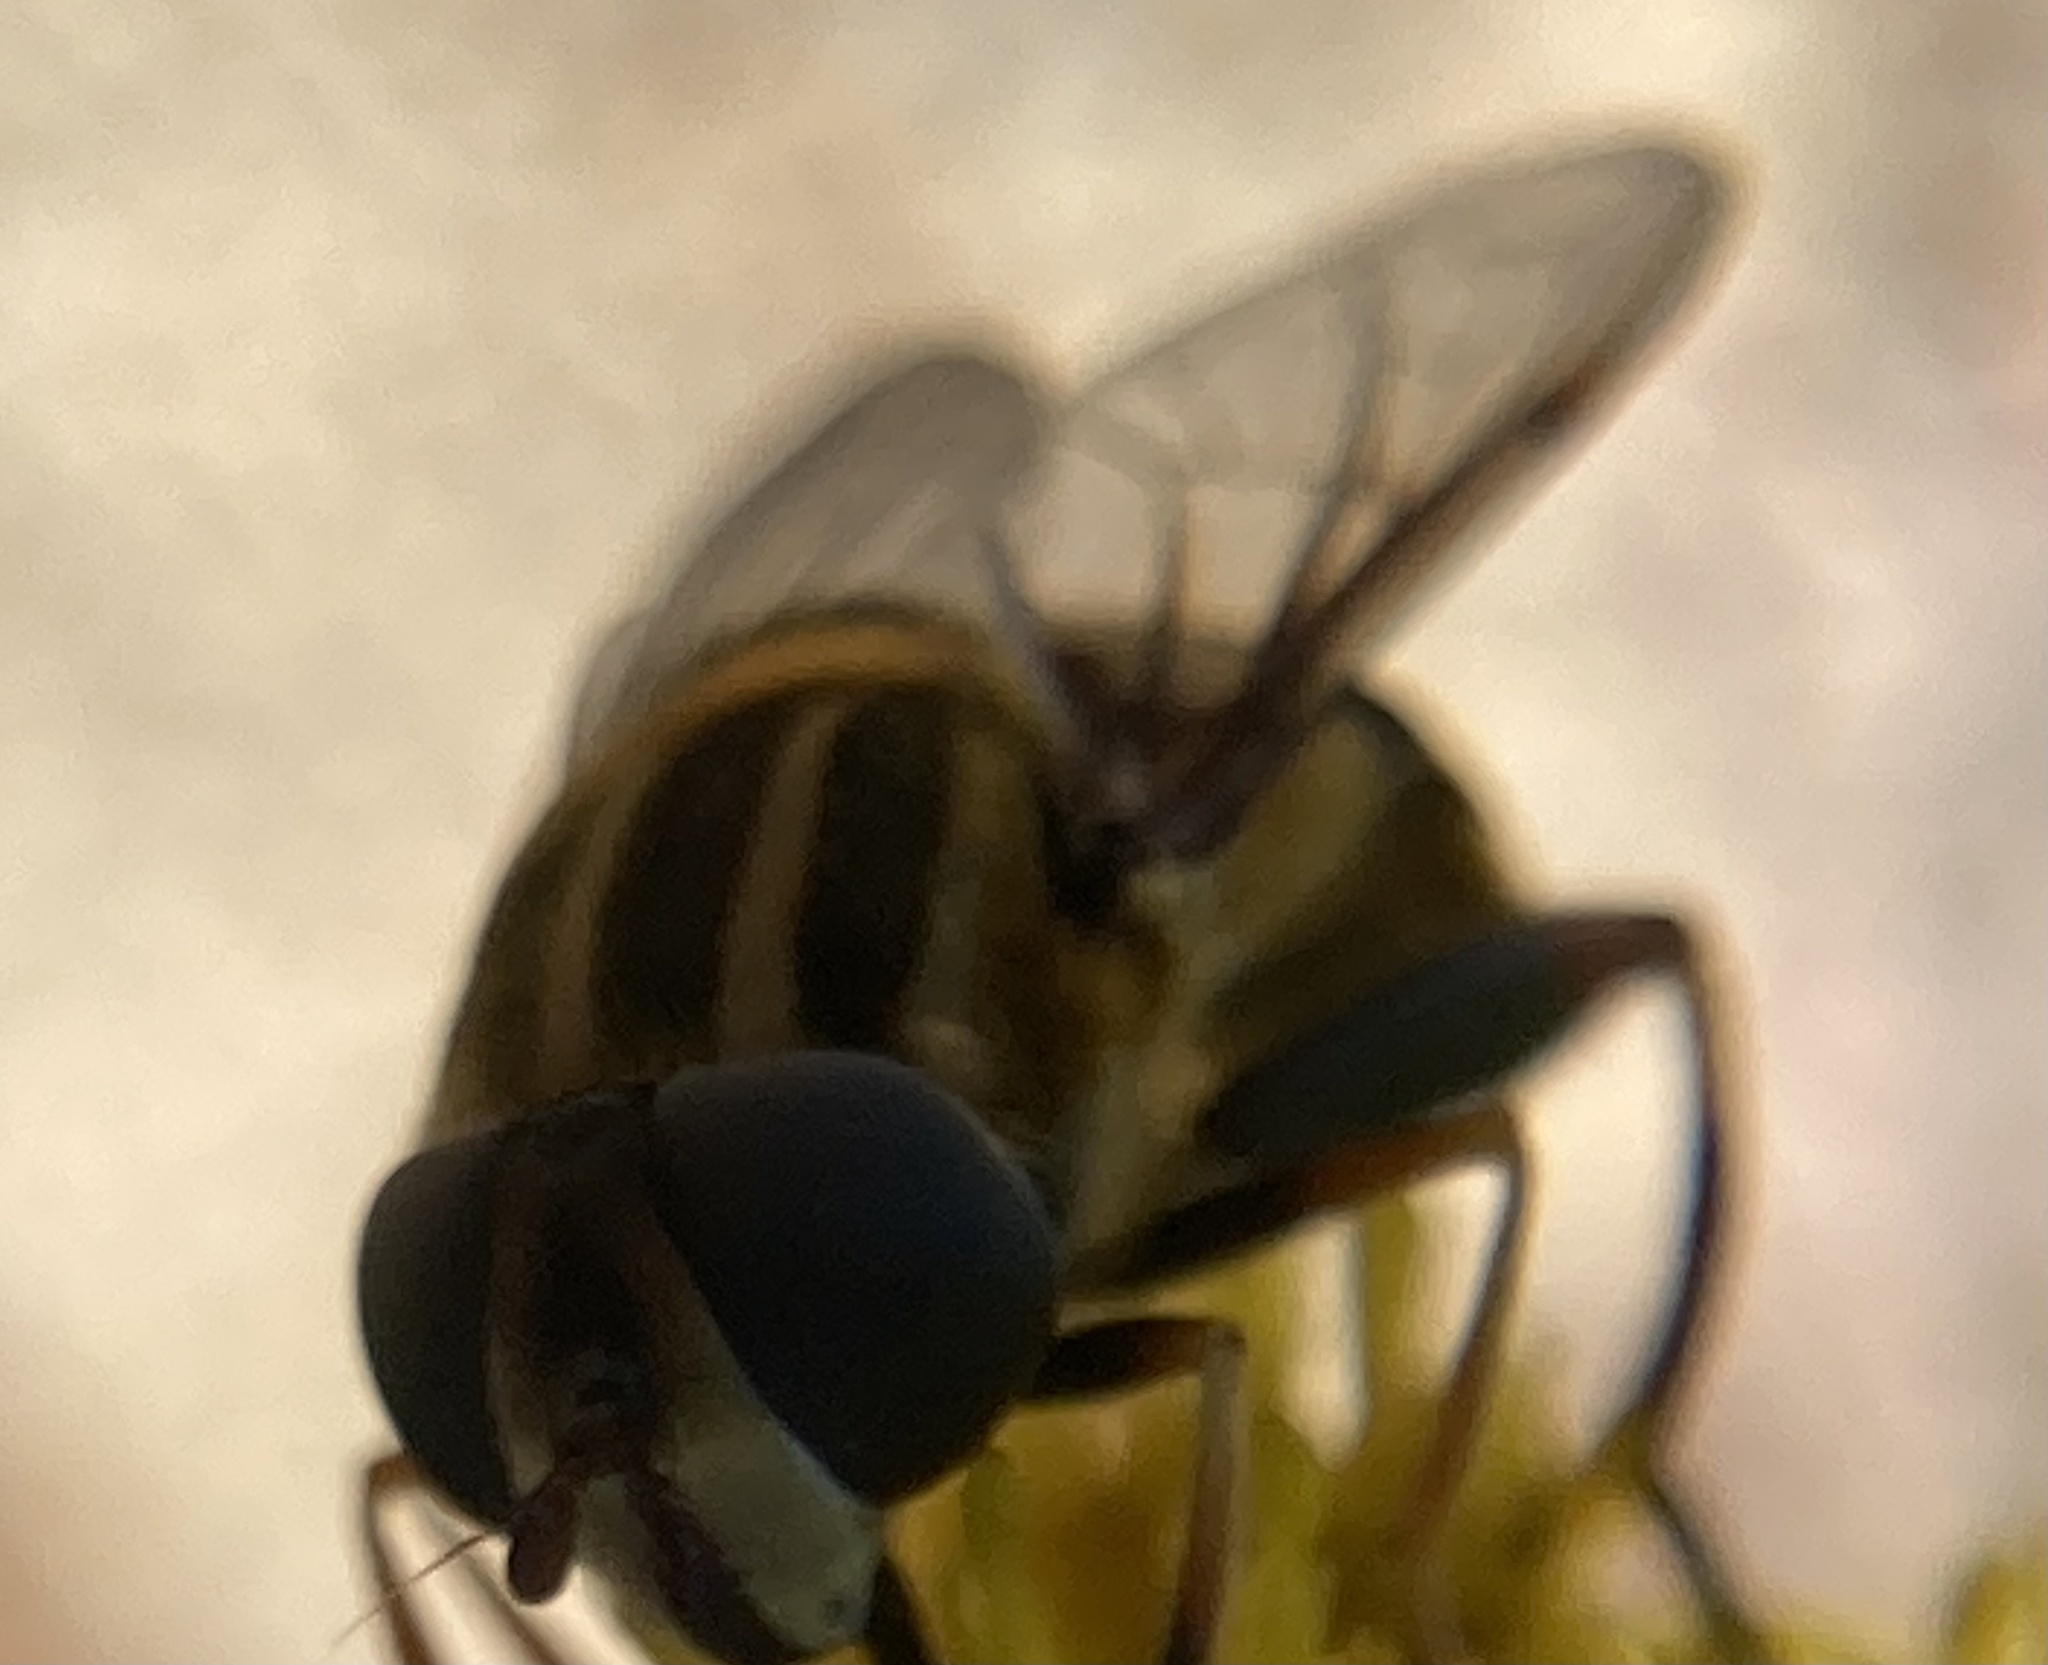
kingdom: Animalia
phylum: Arthropoda
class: Insecta
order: Diptera
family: Syrphidae
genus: Helophilus
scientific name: Helophilus fasciatus
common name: Narrow-headed marsh fly
